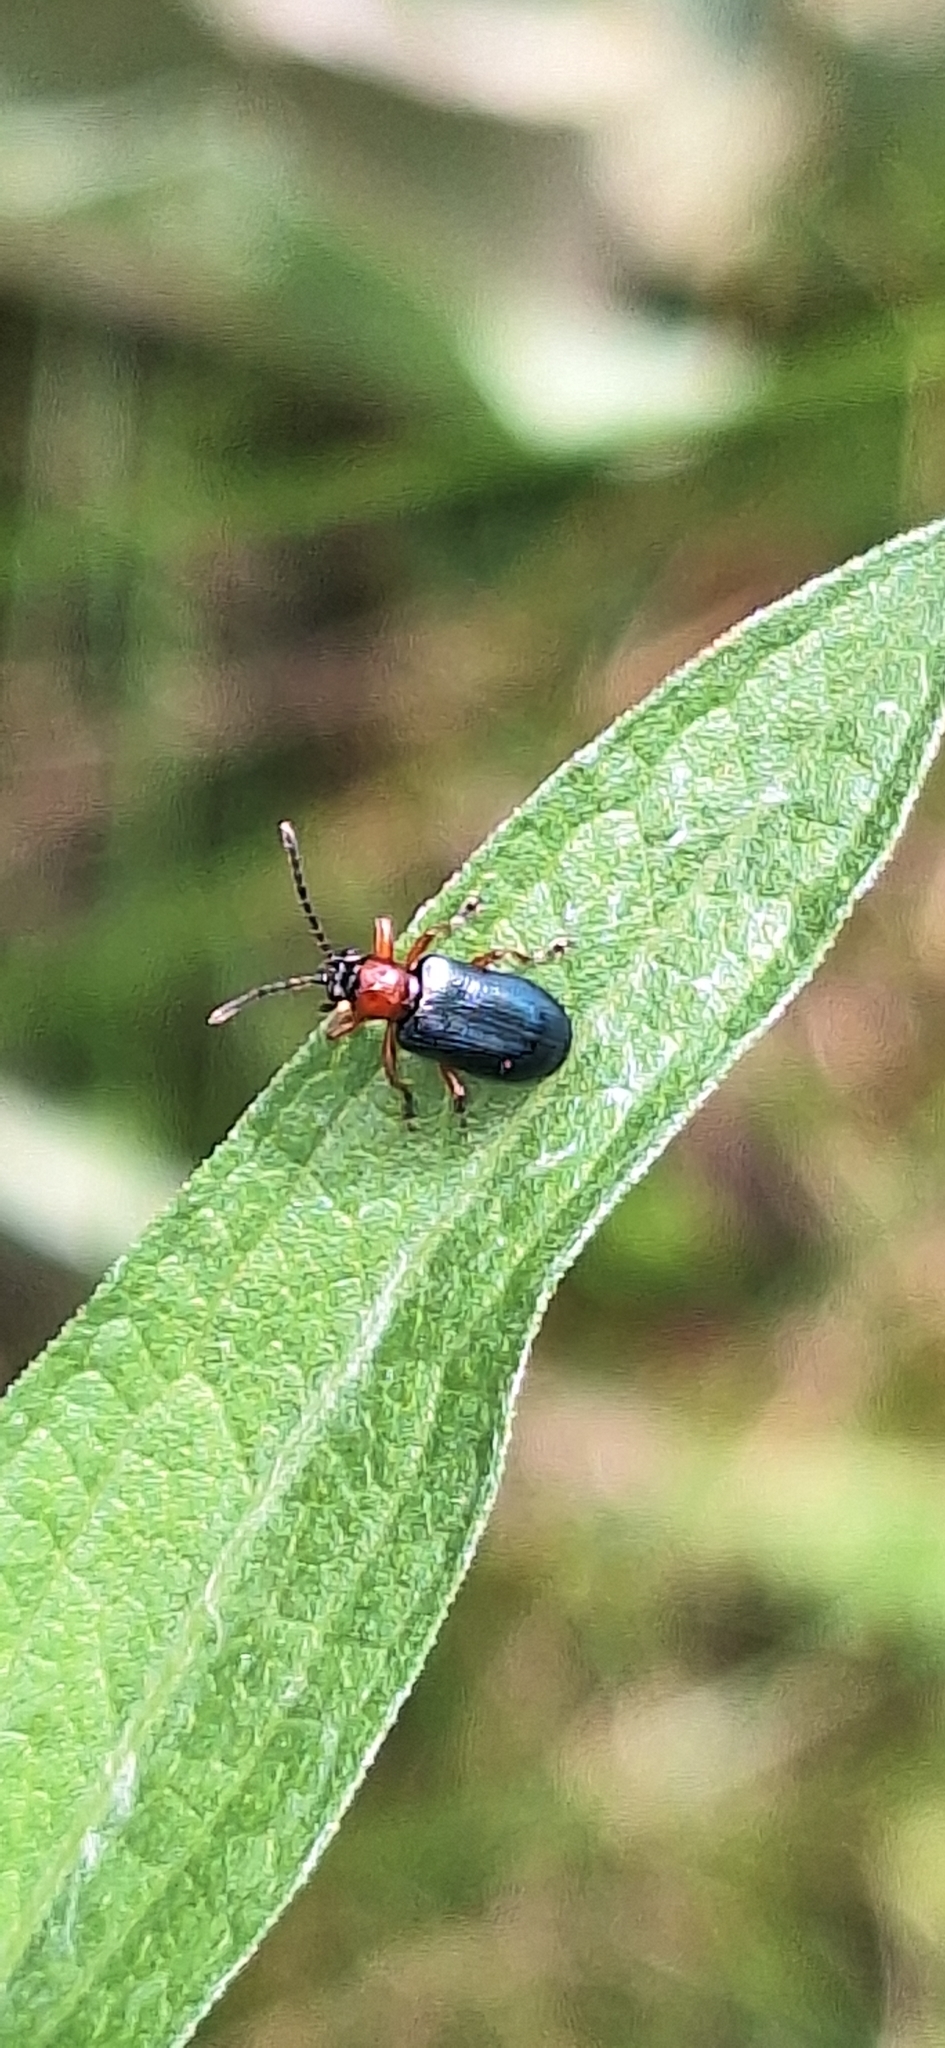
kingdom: Animalia
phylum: Arthropoda
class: Insecta
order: Coleoptera
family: Chrysomelidae
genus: Oulema
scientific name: Oulema
